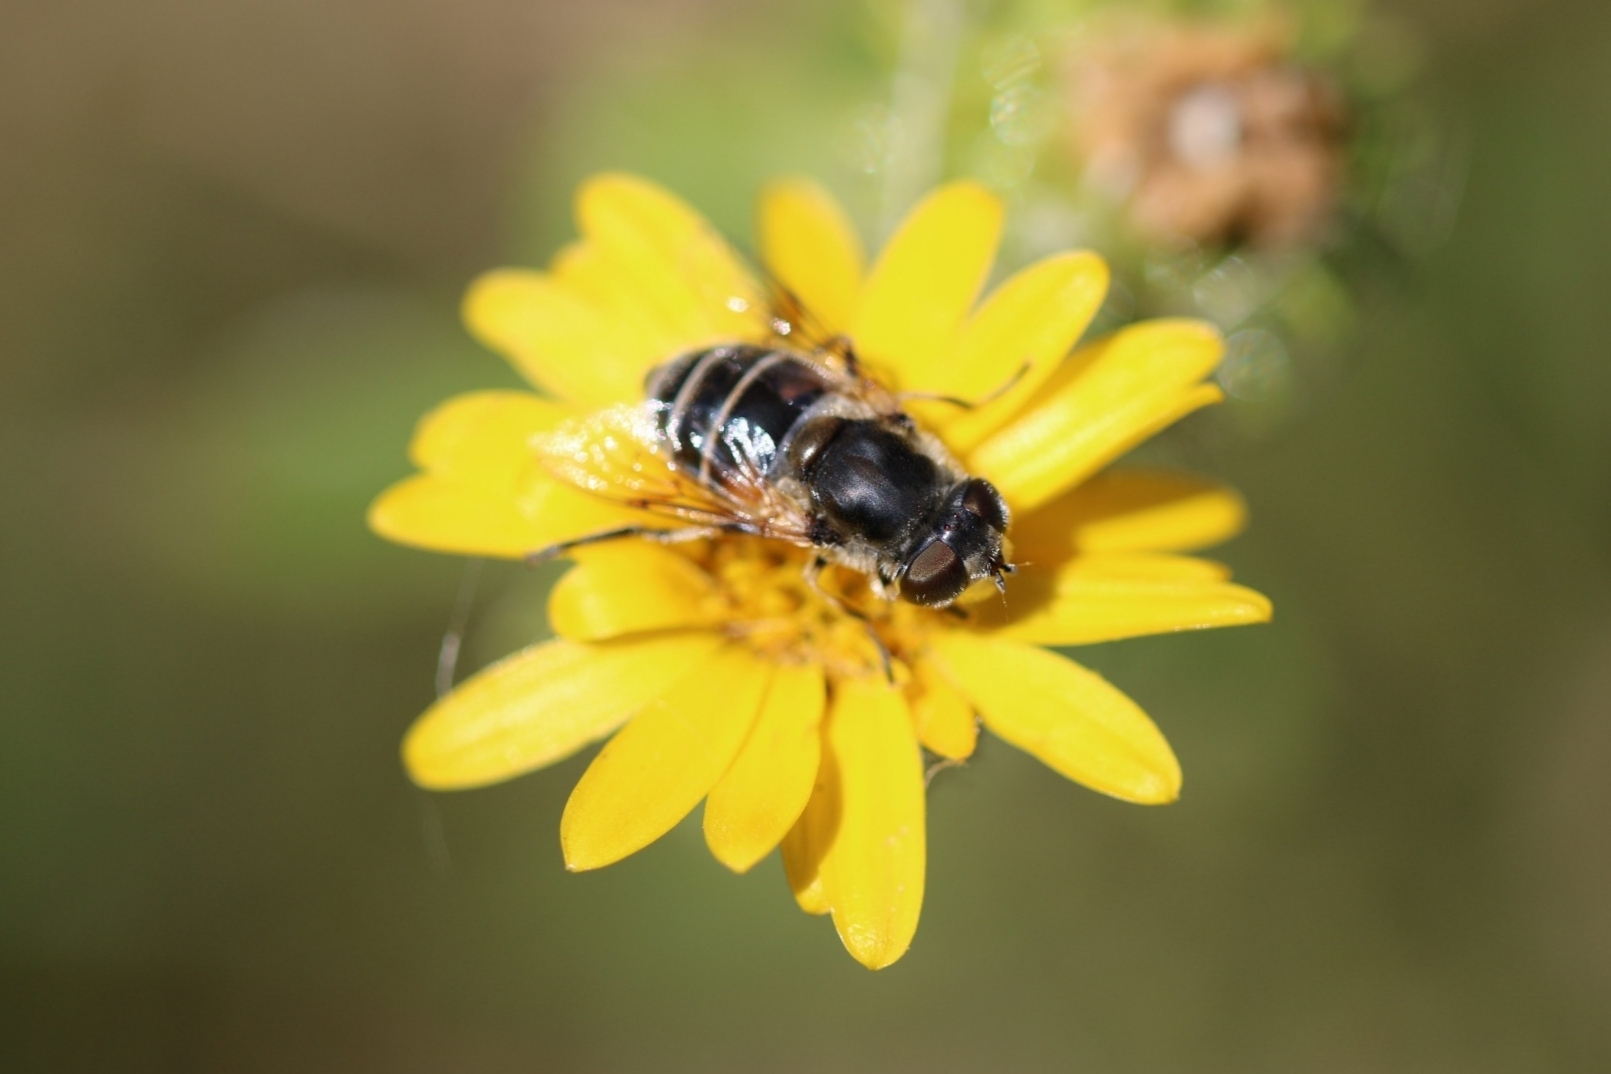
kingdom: Animalia
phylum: Arthropoda
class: Insecta
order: Diptera
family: Syrphidae
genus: Eoseristalis
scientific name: Eoseristalis
